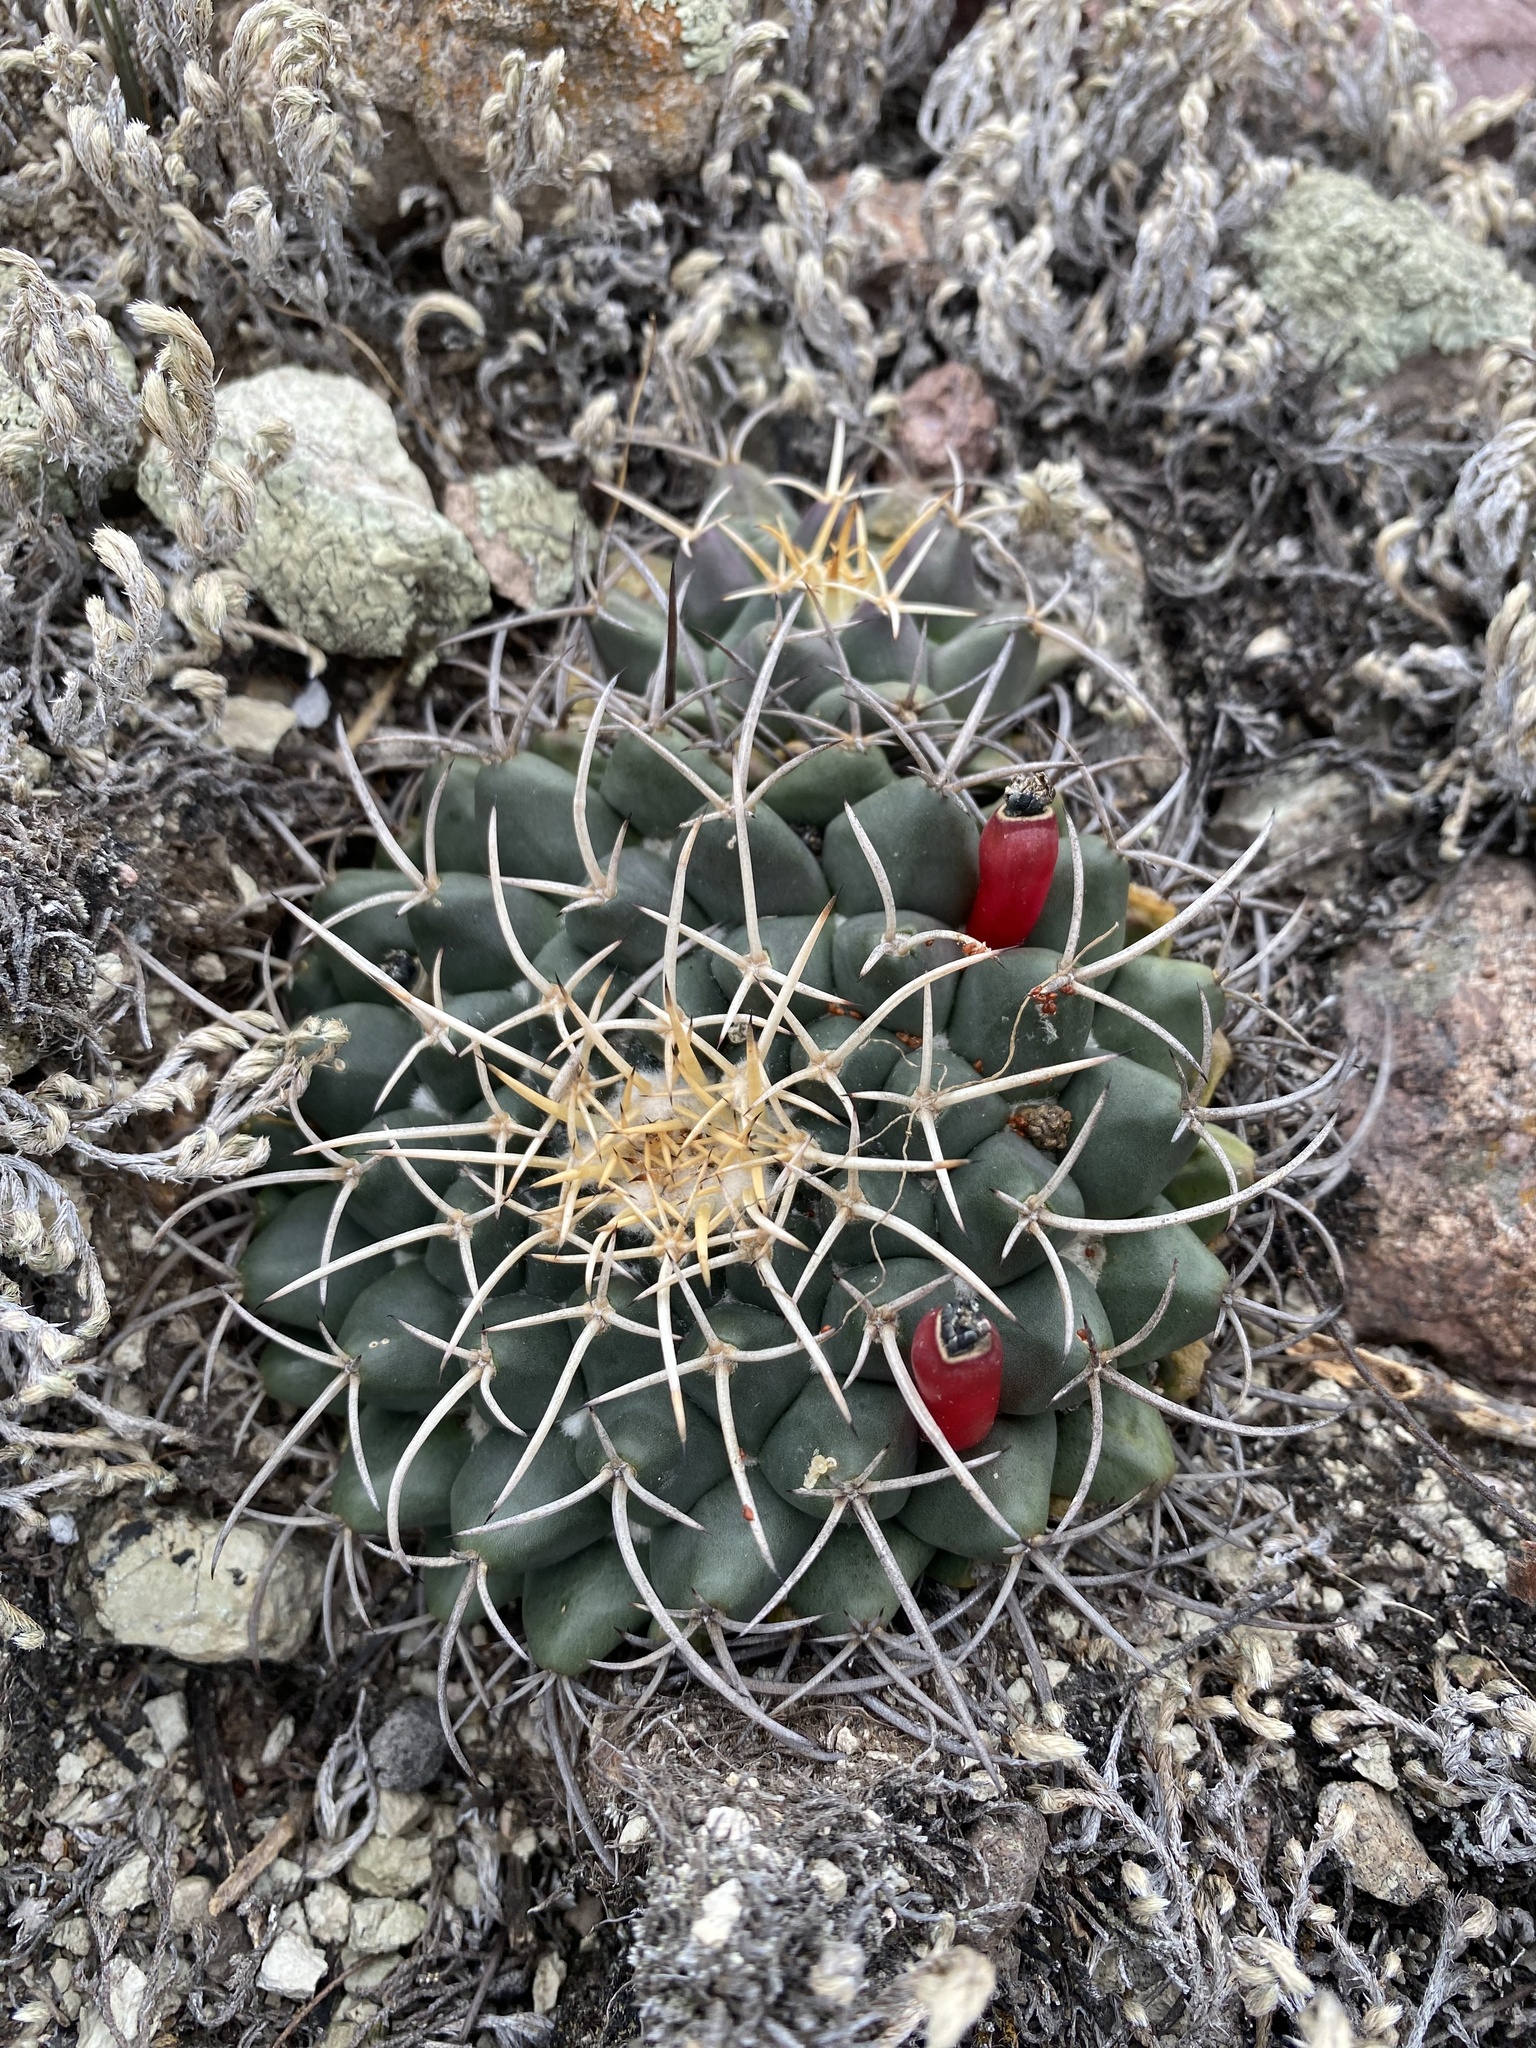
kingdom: Plantae
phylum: Tracheophyta
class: Magnoliopsida
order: Caryophyllales
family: Cactaceae
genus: Mammillaria
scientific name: Mammillaria magnimamma
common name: Mexican pincushion
